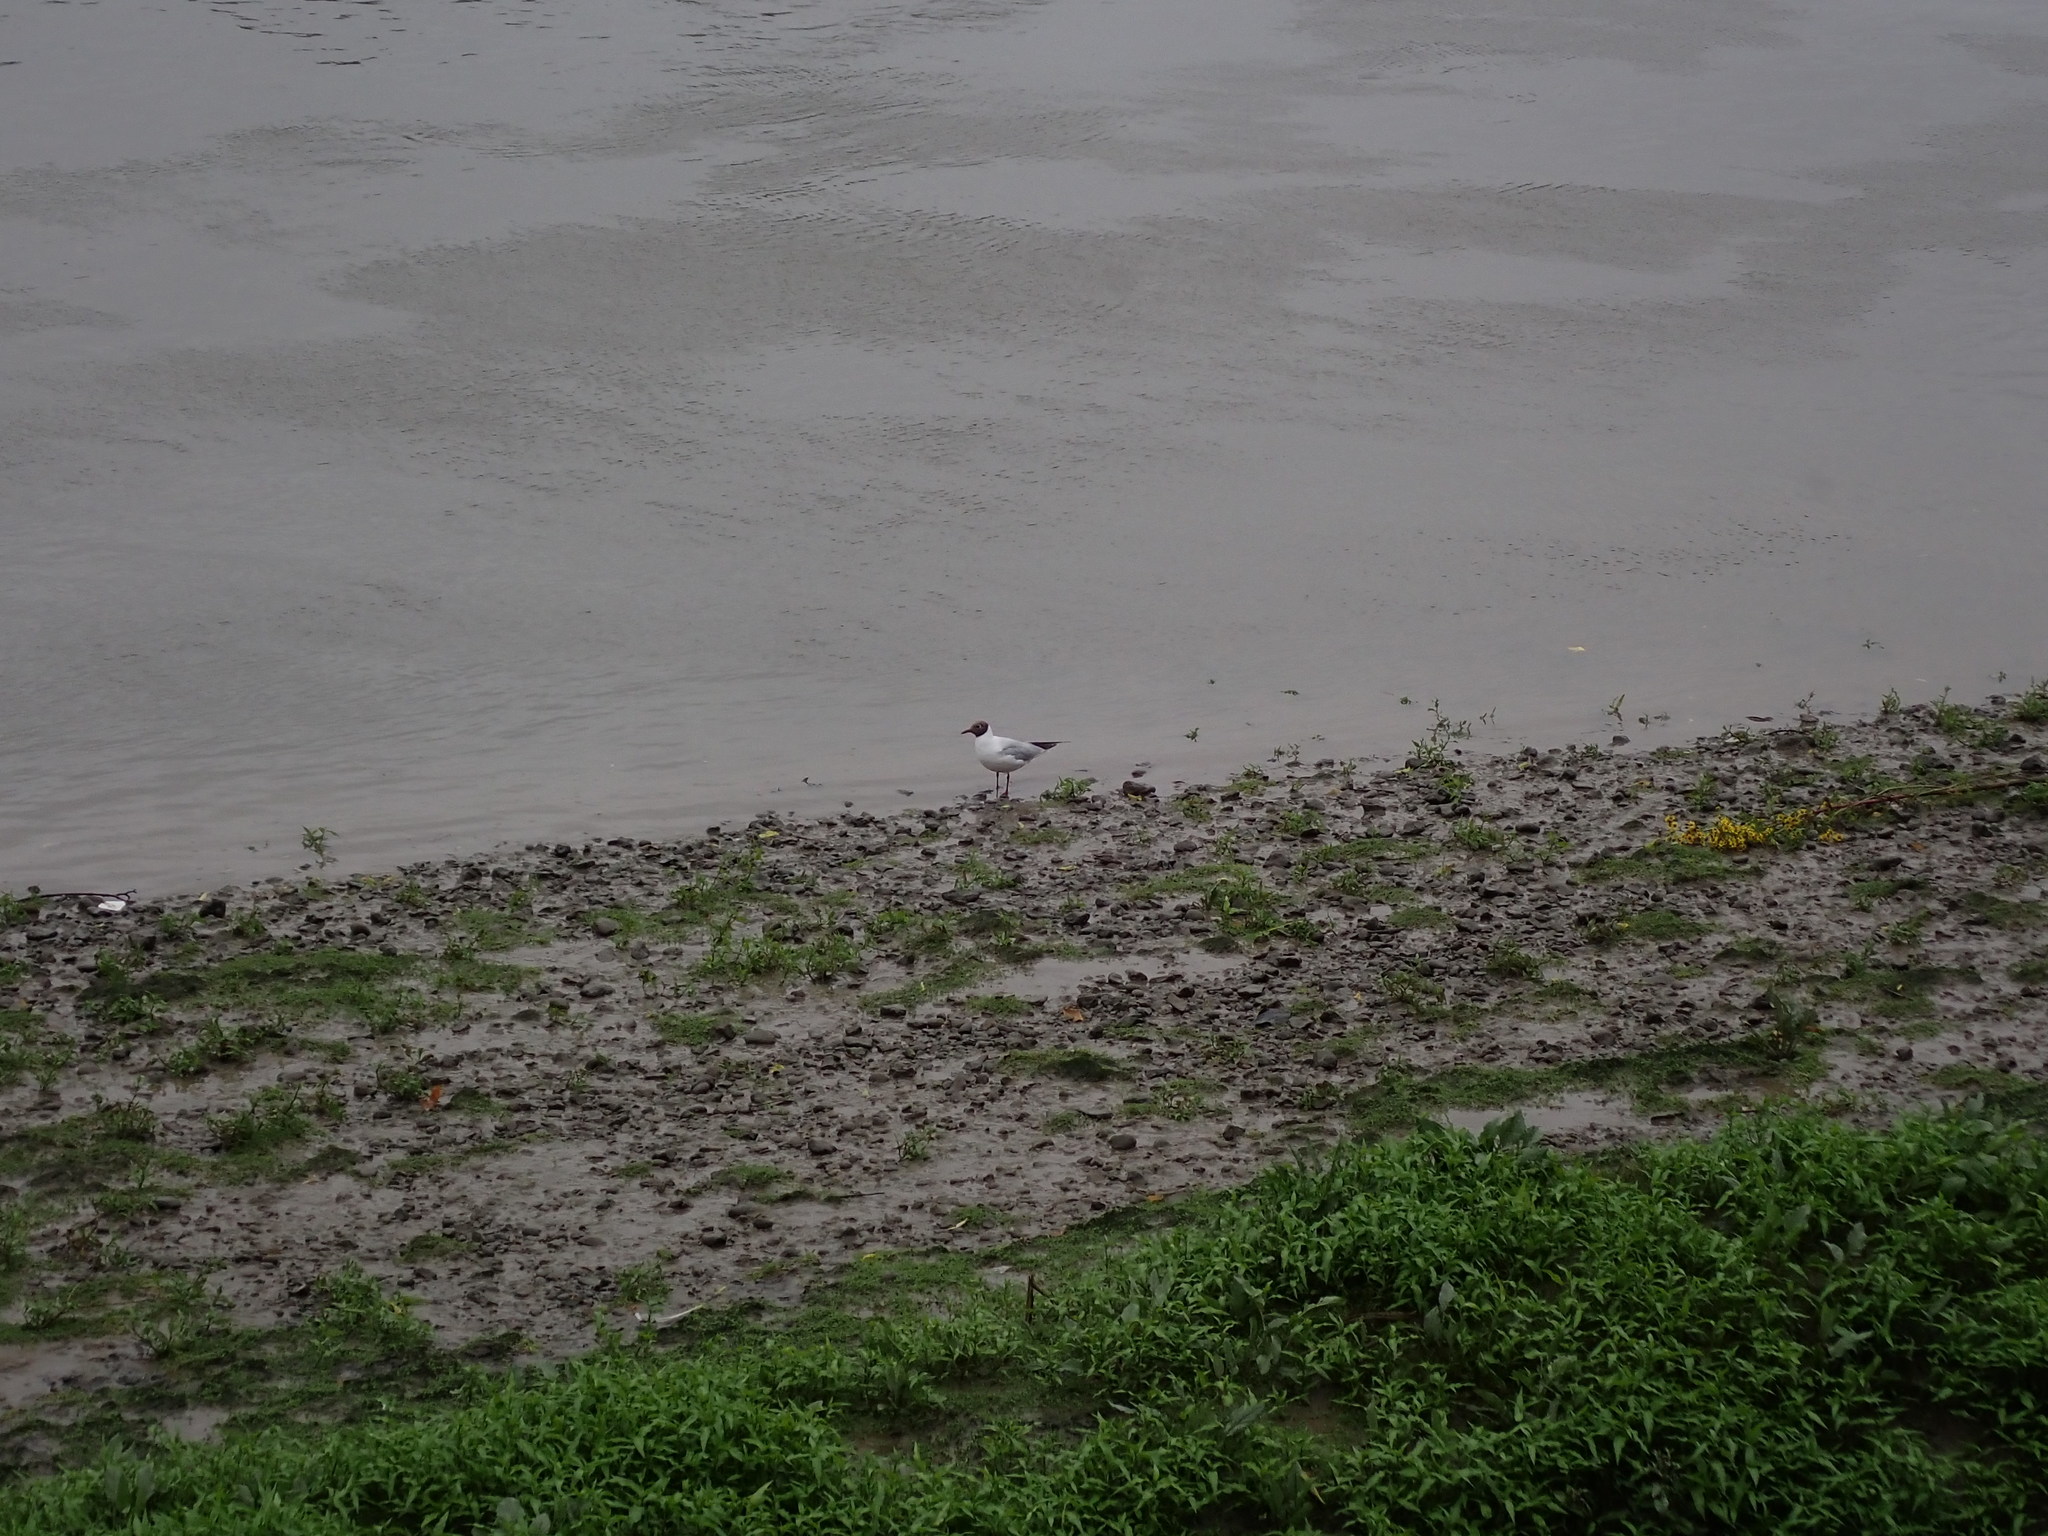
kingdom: Animalia
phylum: Chordata
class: Aves
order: Charadriiformes
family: Laridae
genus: Chroicocephalus
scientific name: Chroicocephalus ridibundus
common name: Black-headed gull
